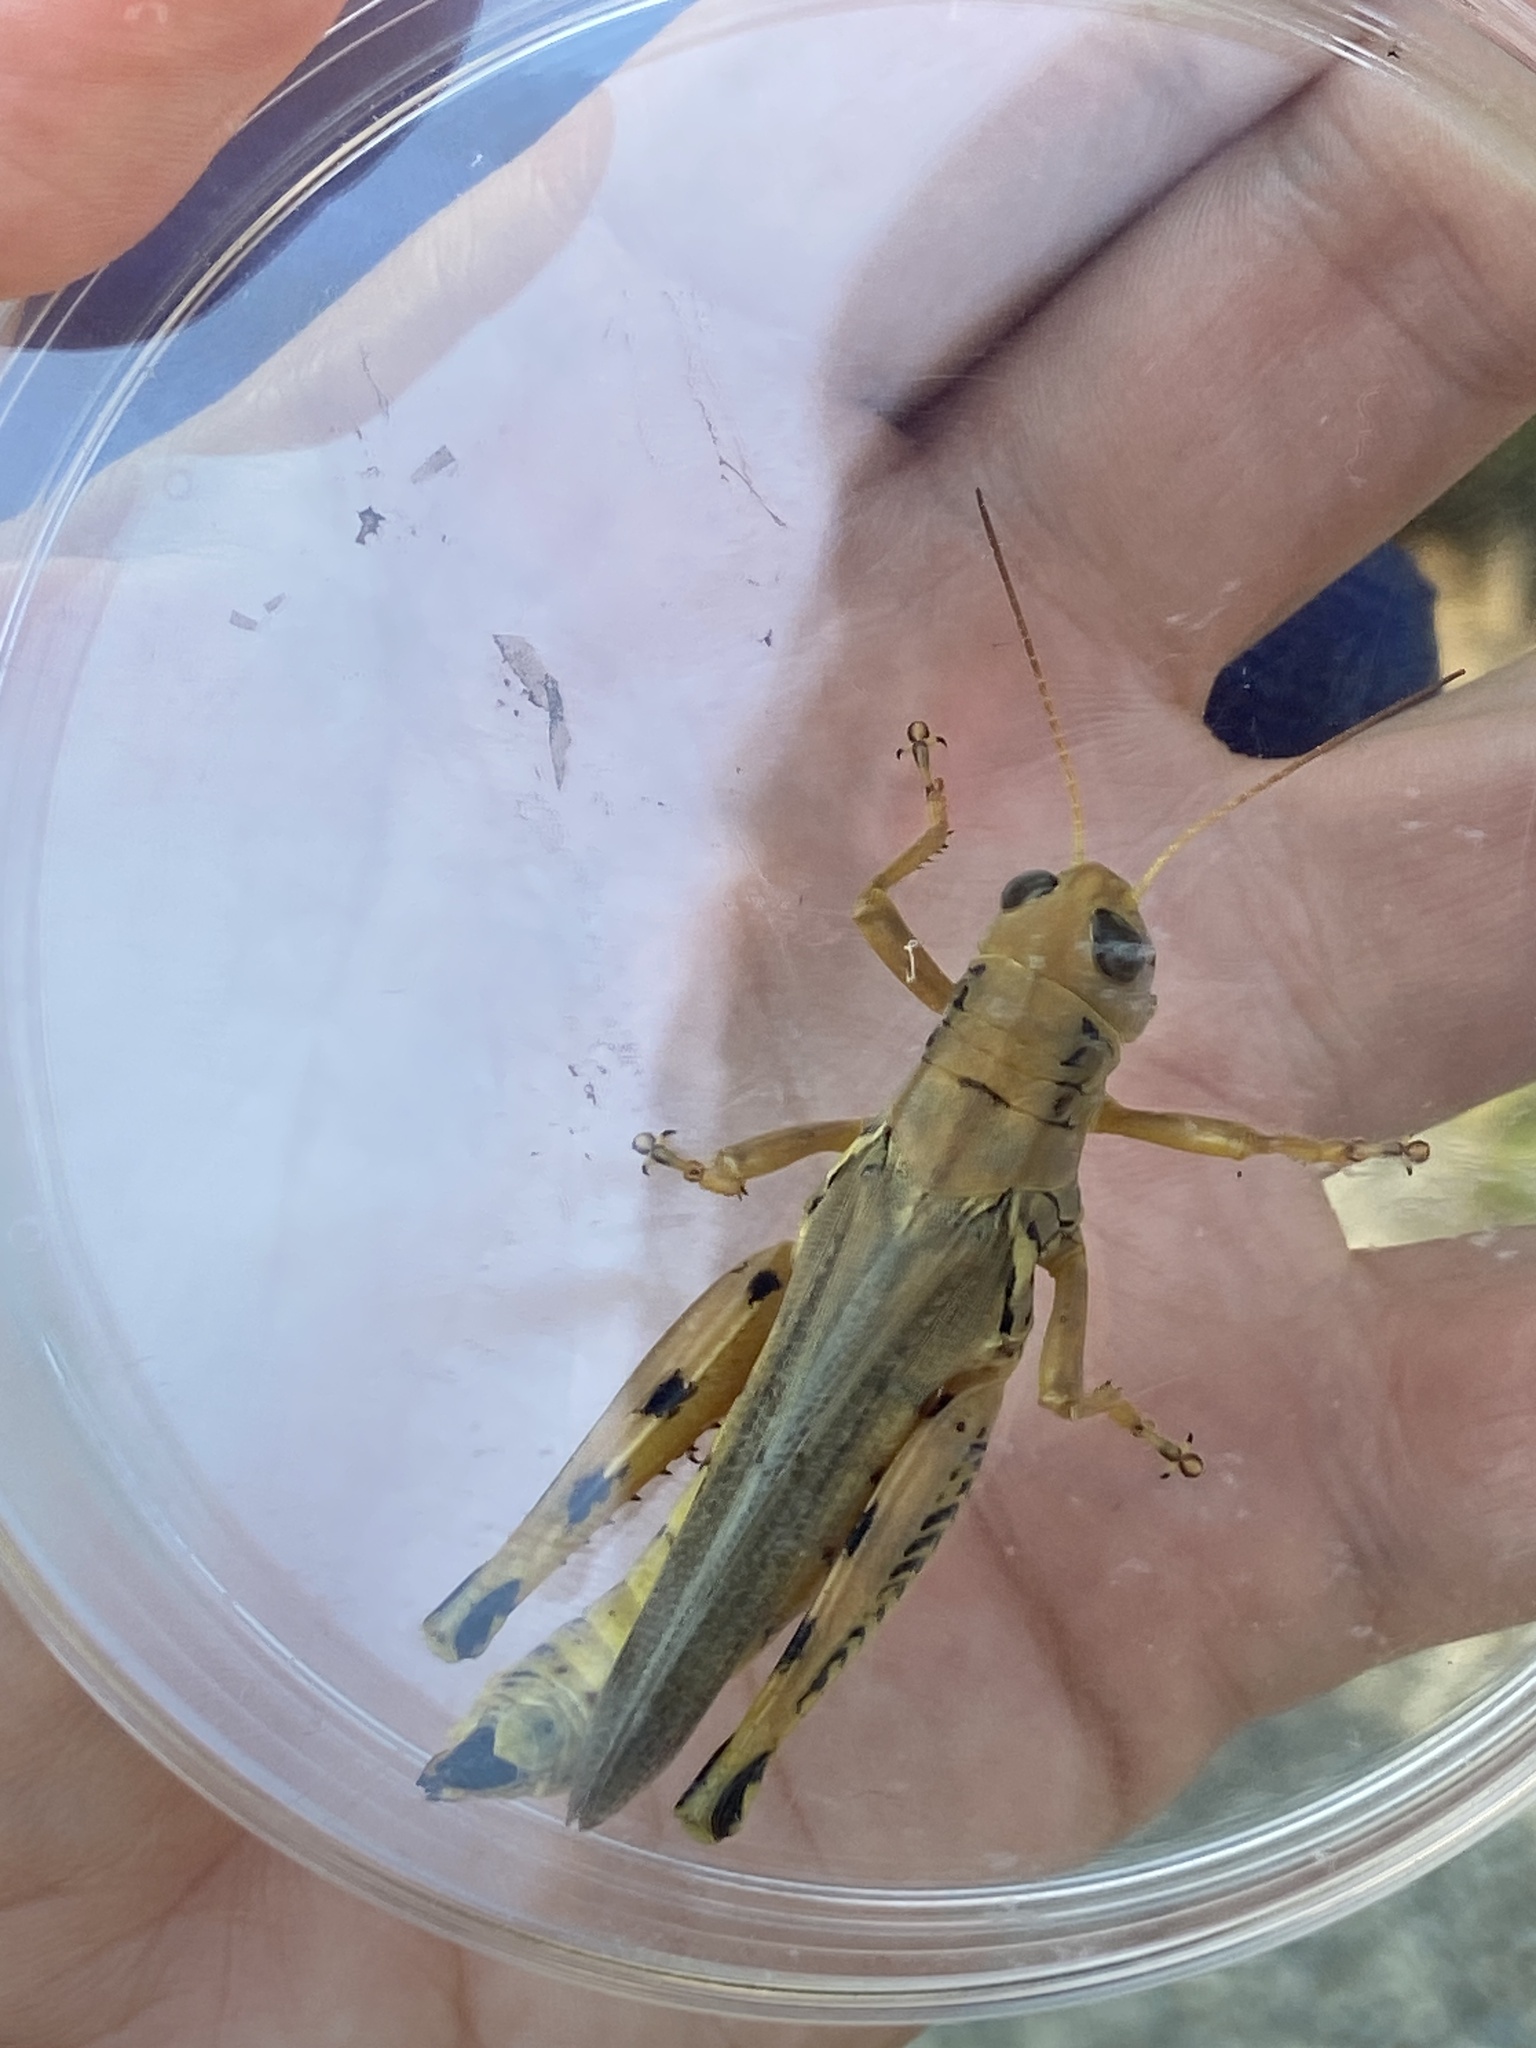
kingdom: Animalia
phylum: Arthropoda
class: Insecta
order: Orthoptera
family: Acrididae
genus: Melanoplus
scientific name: Melanoplus differentialis
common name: Differential grasshopper
